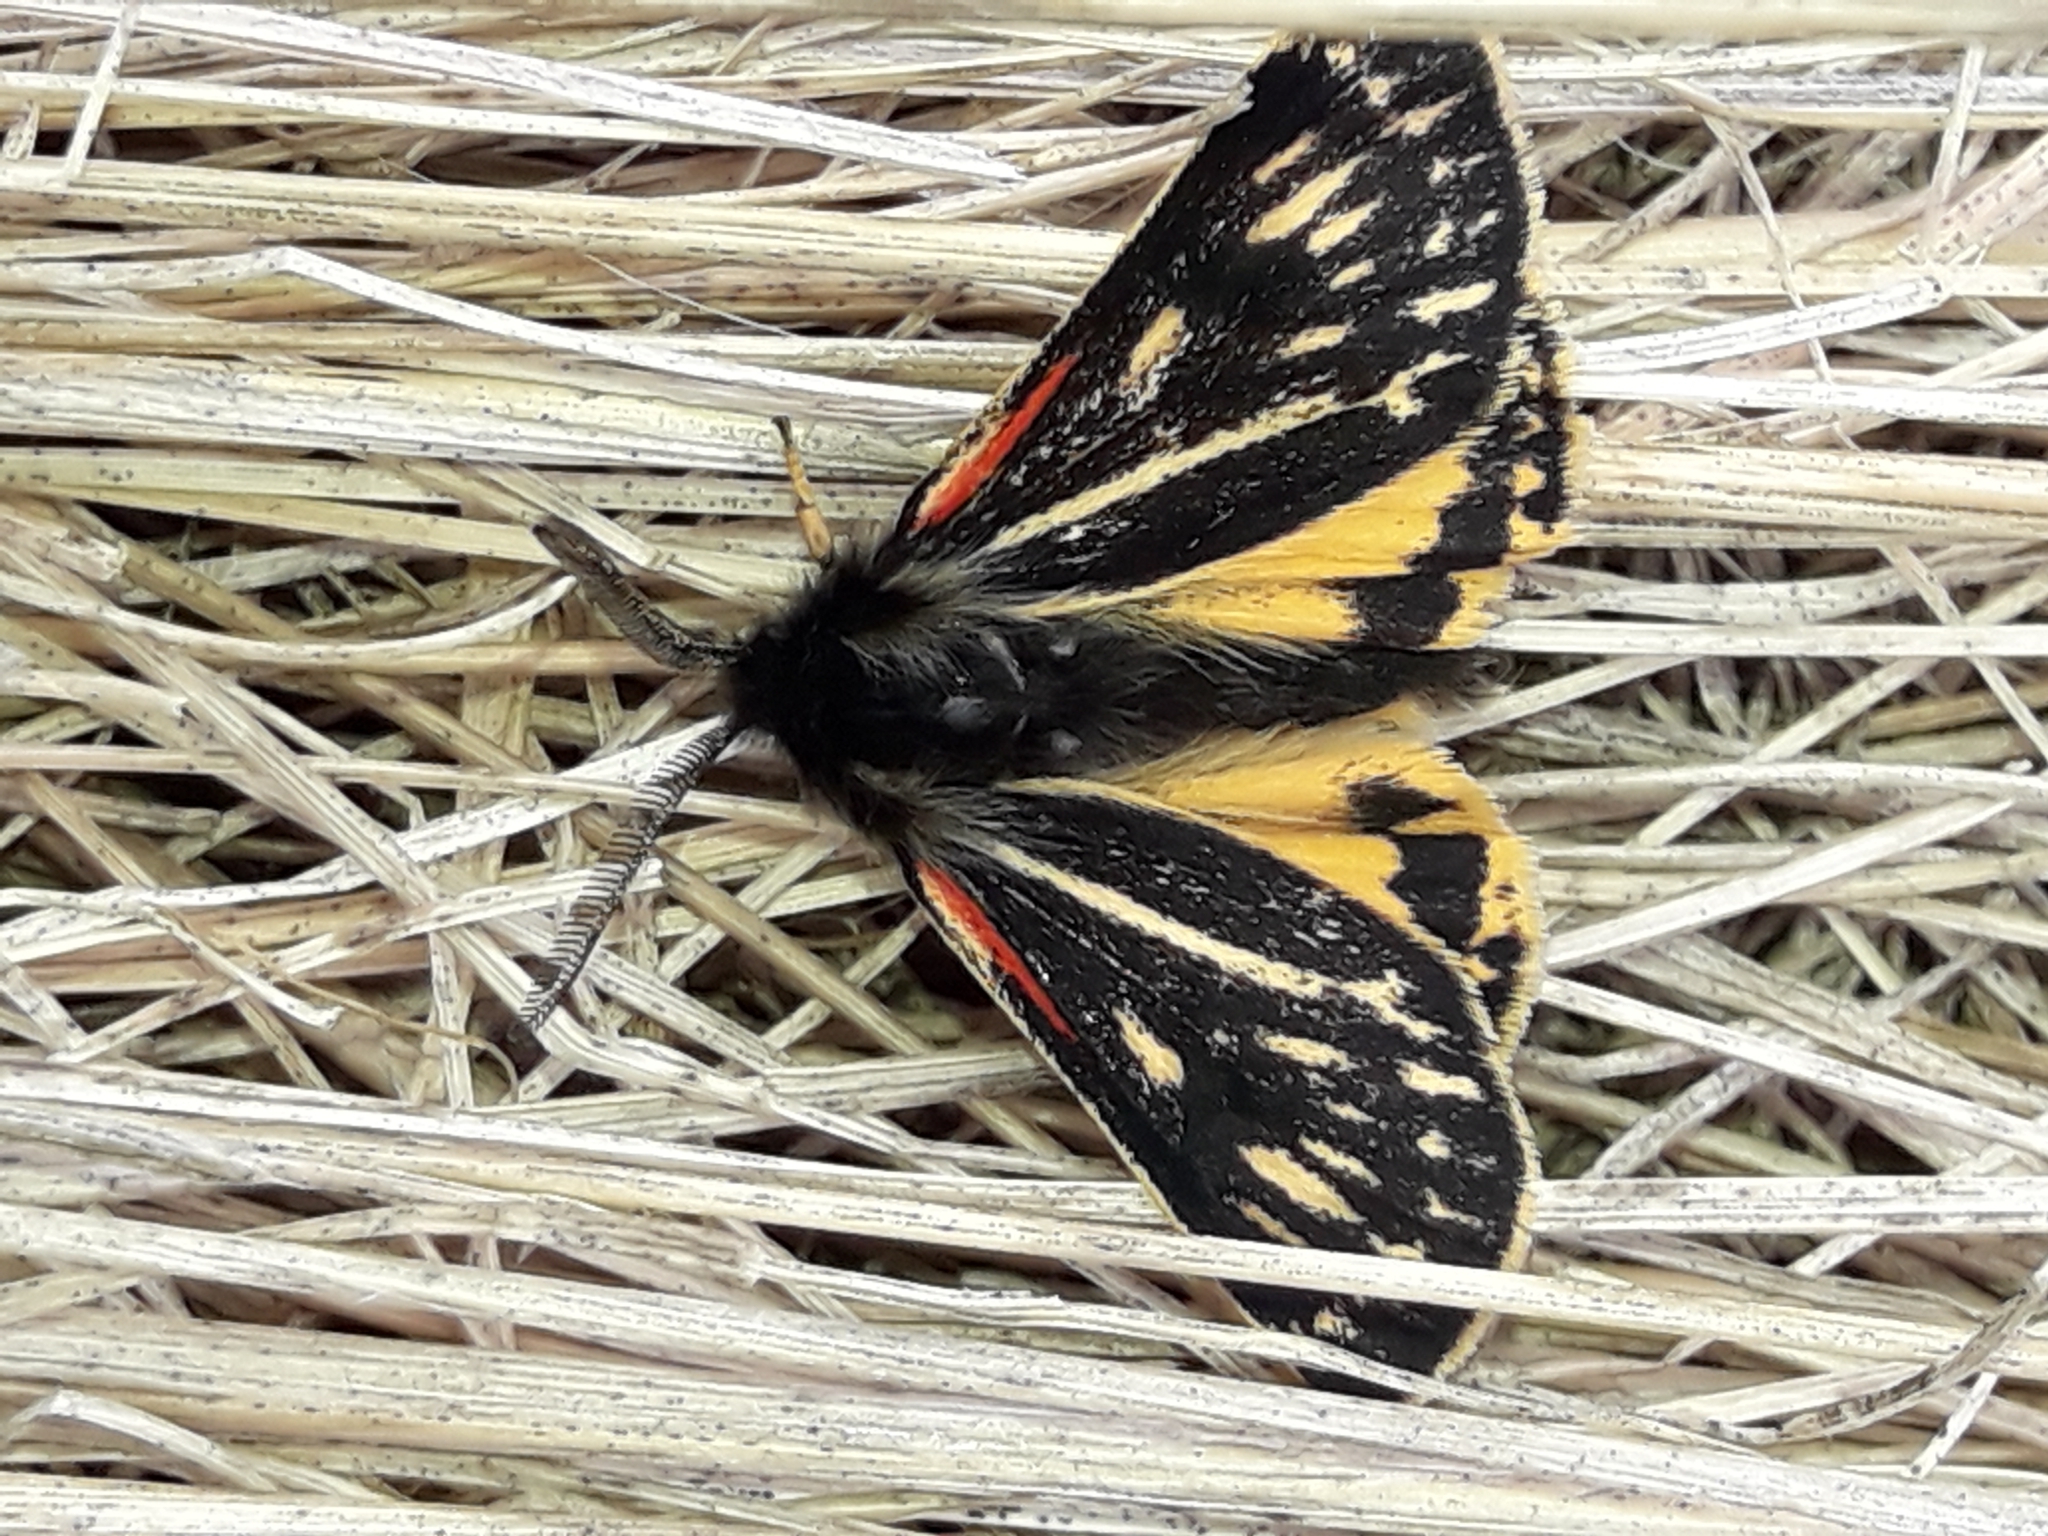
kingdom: Animalia
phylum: Arthropoda
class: Insecta
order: Lepidoptera
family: Erebidae
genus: Metacrias
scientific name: Metacrias huttoni
